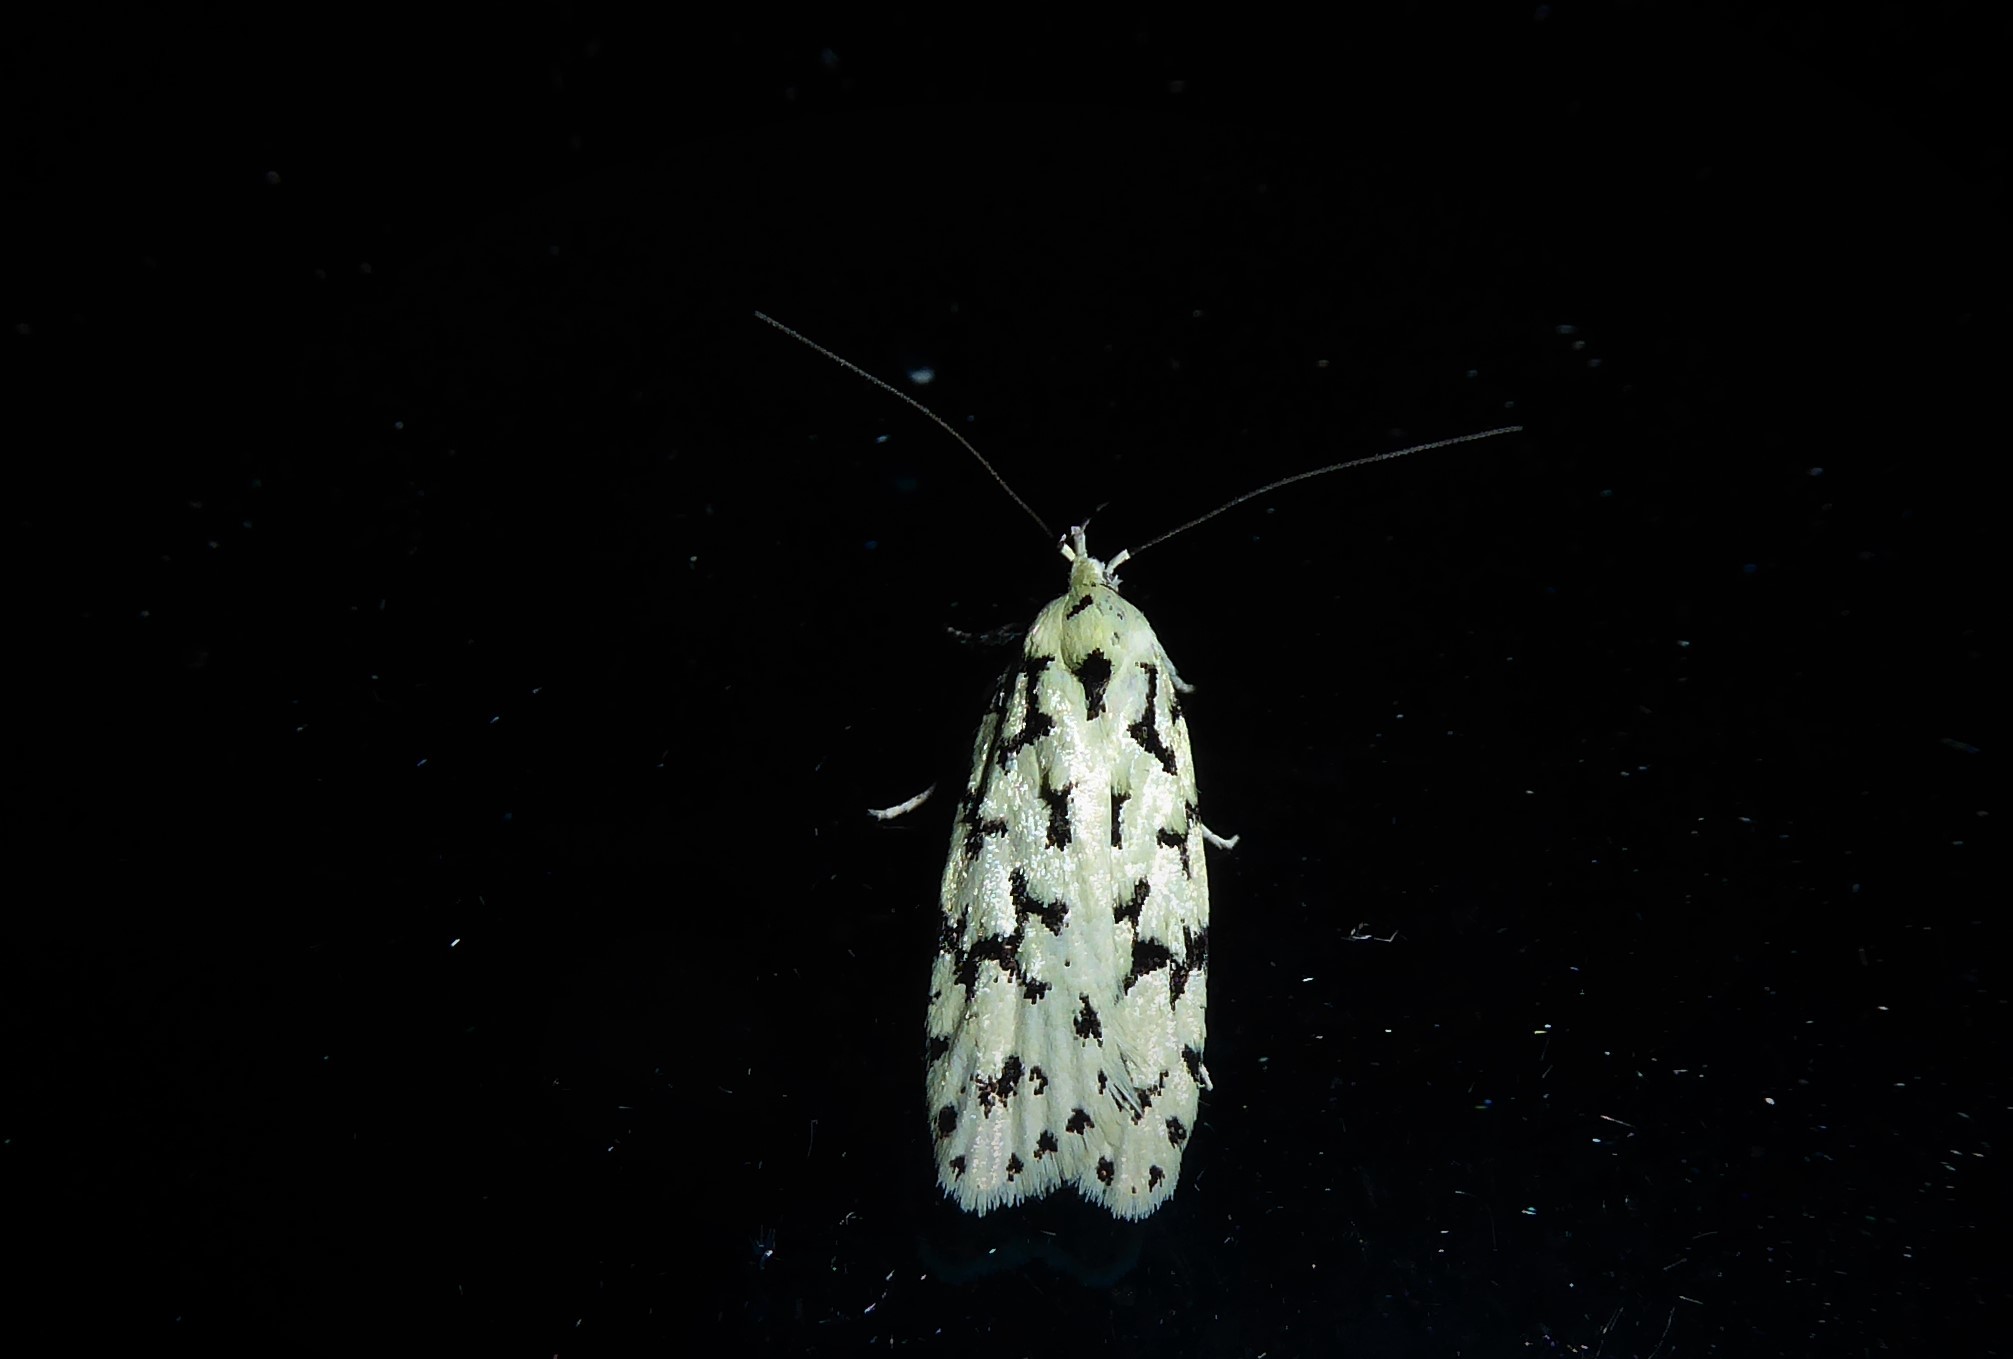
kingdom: Animalia
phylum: Arthropoda
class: Insecta
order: Lepidoptera
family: Oecophoridae
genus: Izatha
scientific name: Izatha huttoni
